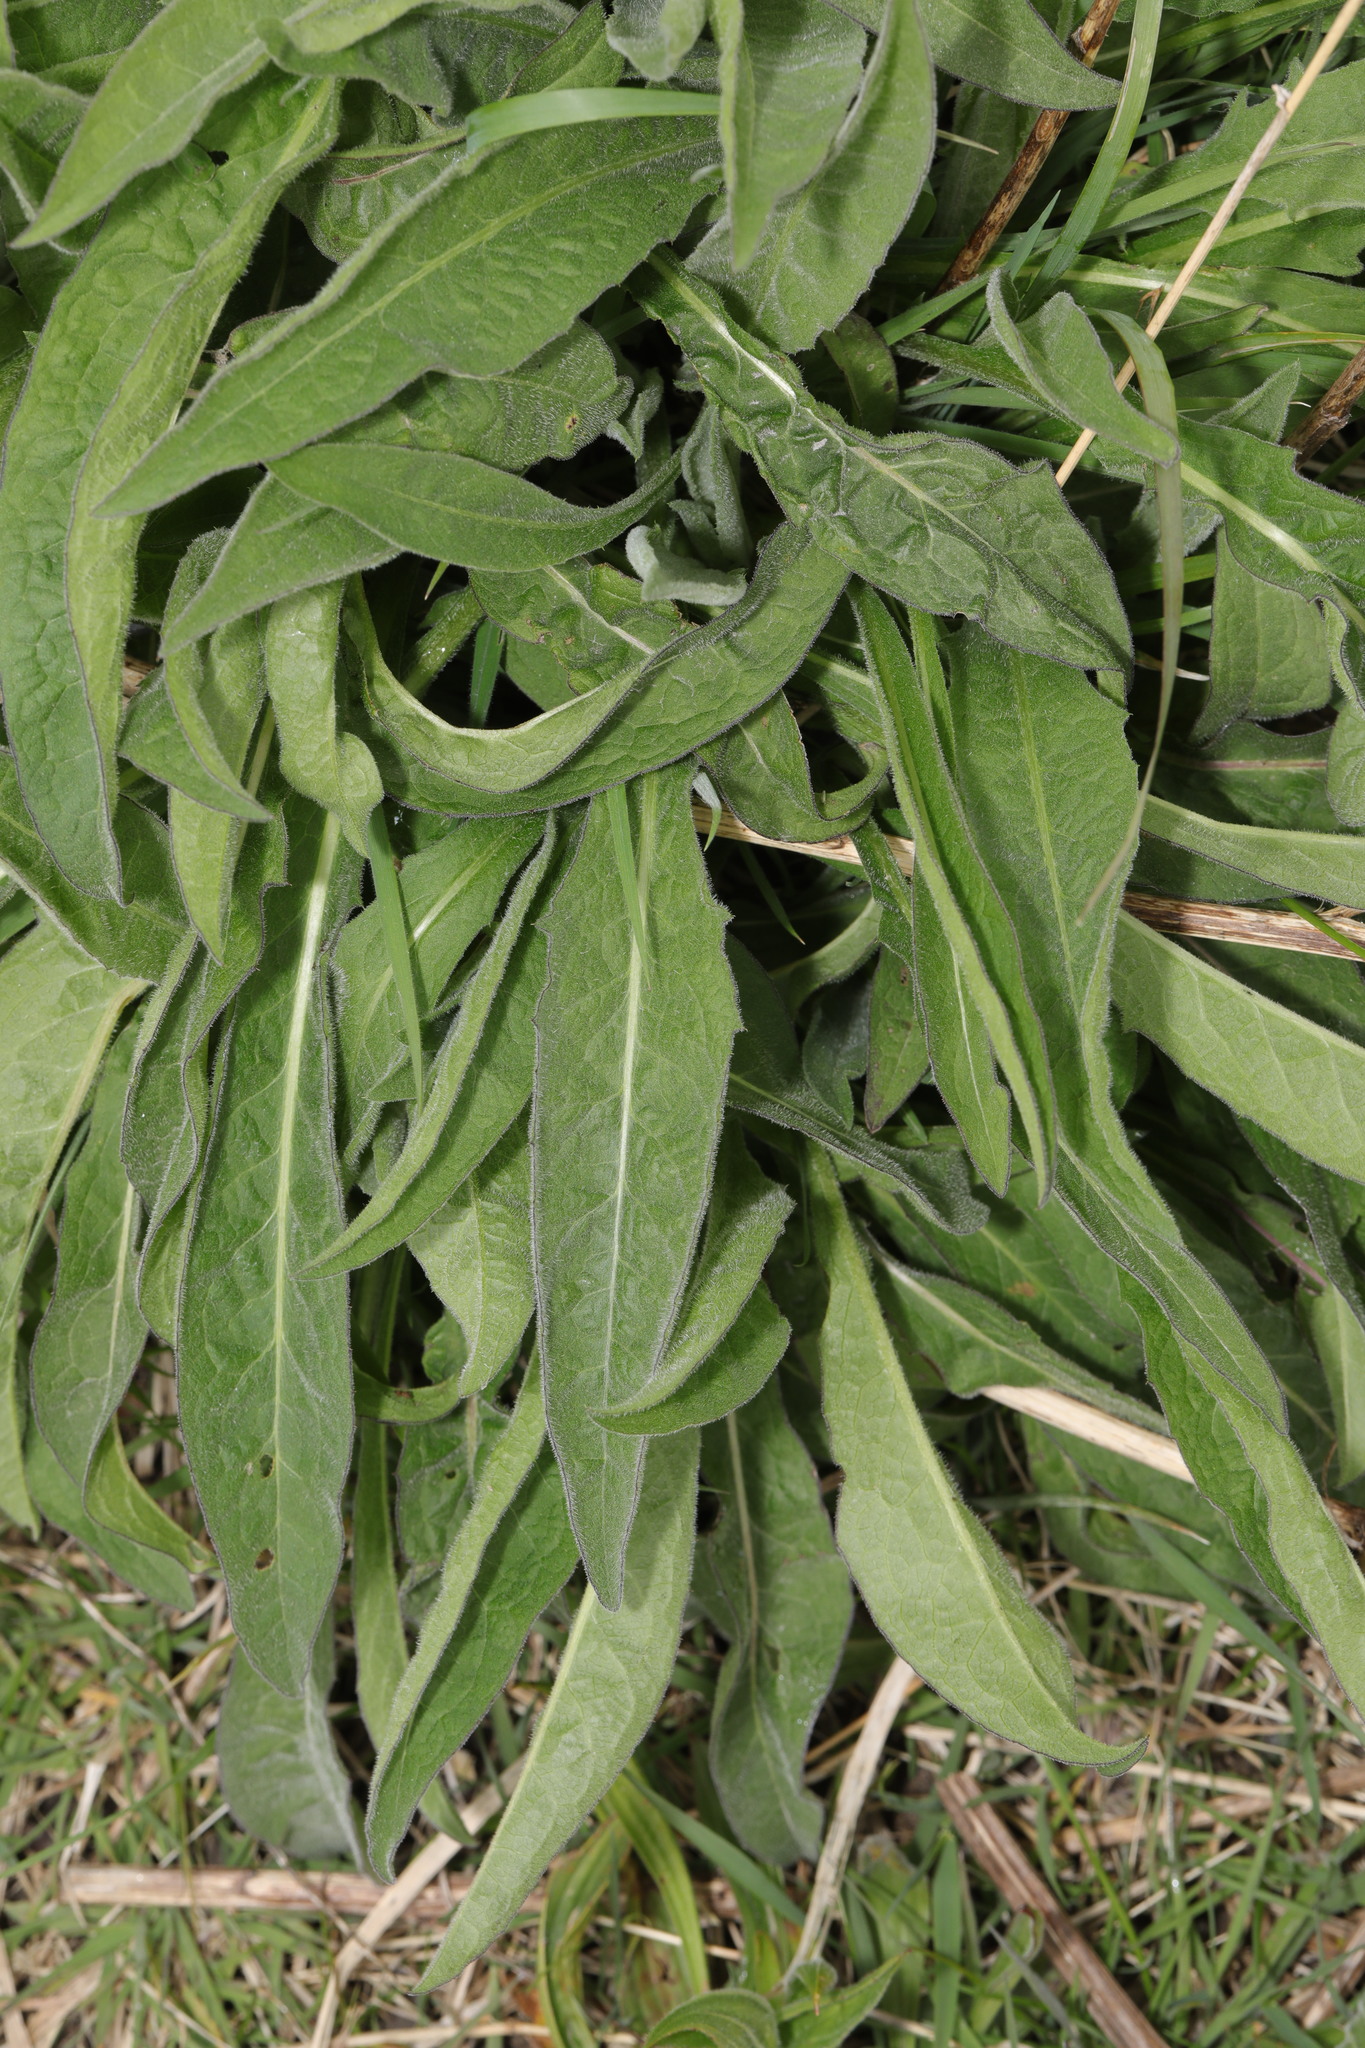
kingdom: Plantae
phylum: Tracheophyta
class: Magnoliopsida
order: Asterales
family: Asteraceae
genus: Centaurea
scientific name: Centaurea nigra
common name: Lesser knapweed
